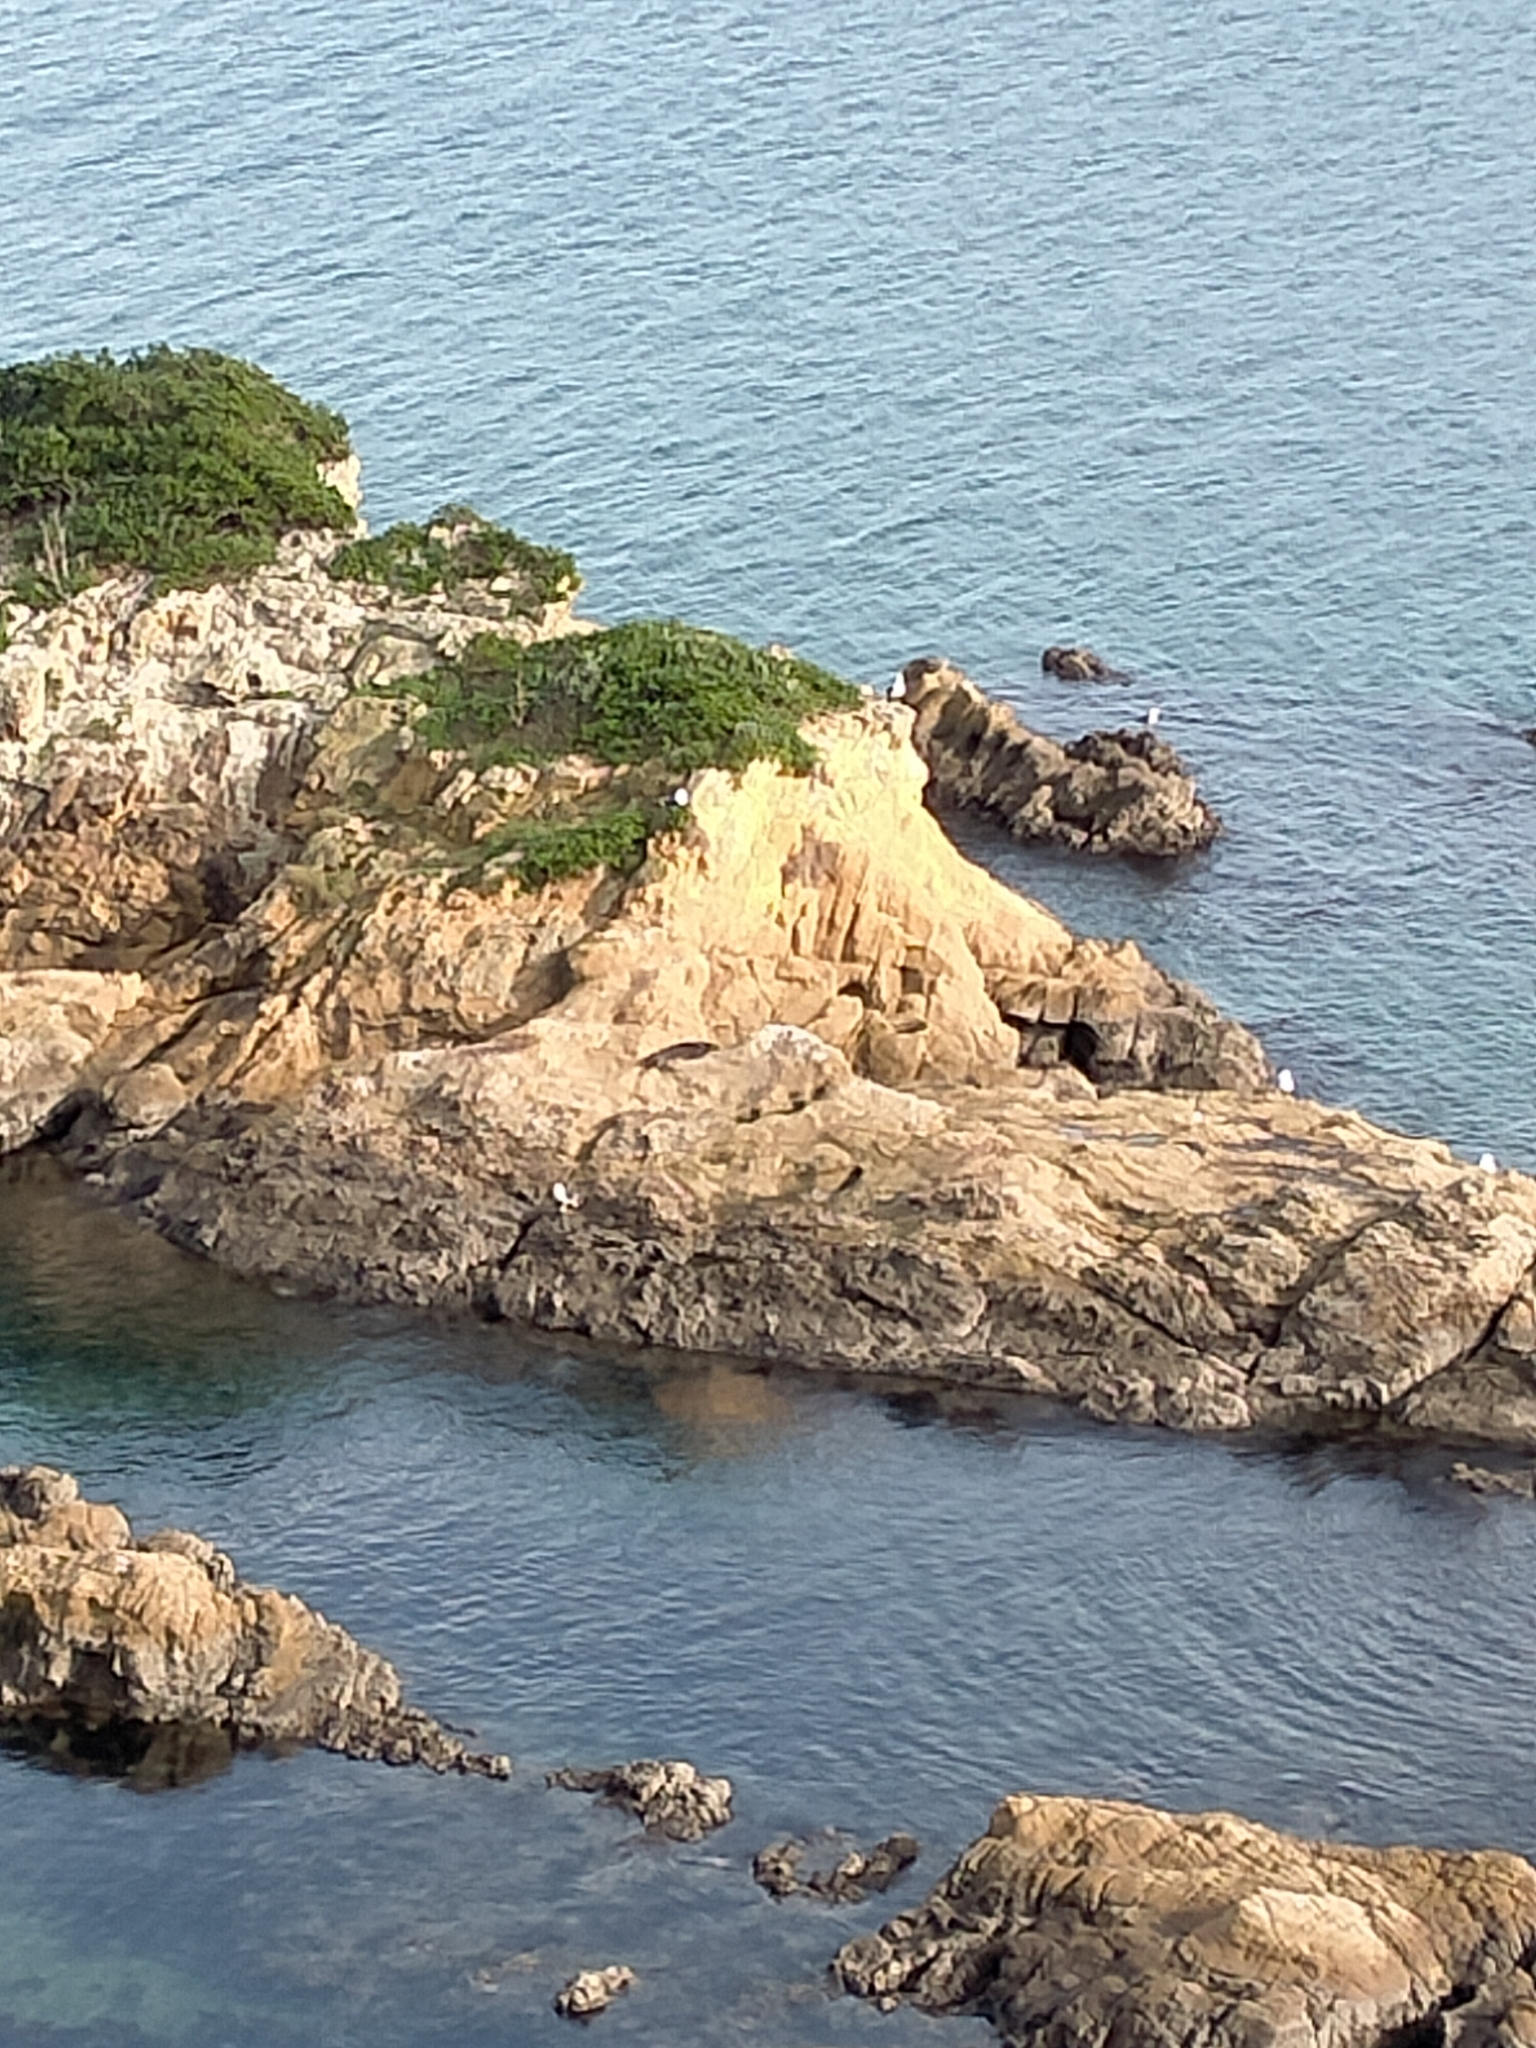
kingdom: Animalia
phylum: Chordata
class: Mammalia
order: Carnivora
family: Otariidae
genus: Arctocephalus
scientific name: Arctocephalus forsteri
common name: New zealand fur seal
